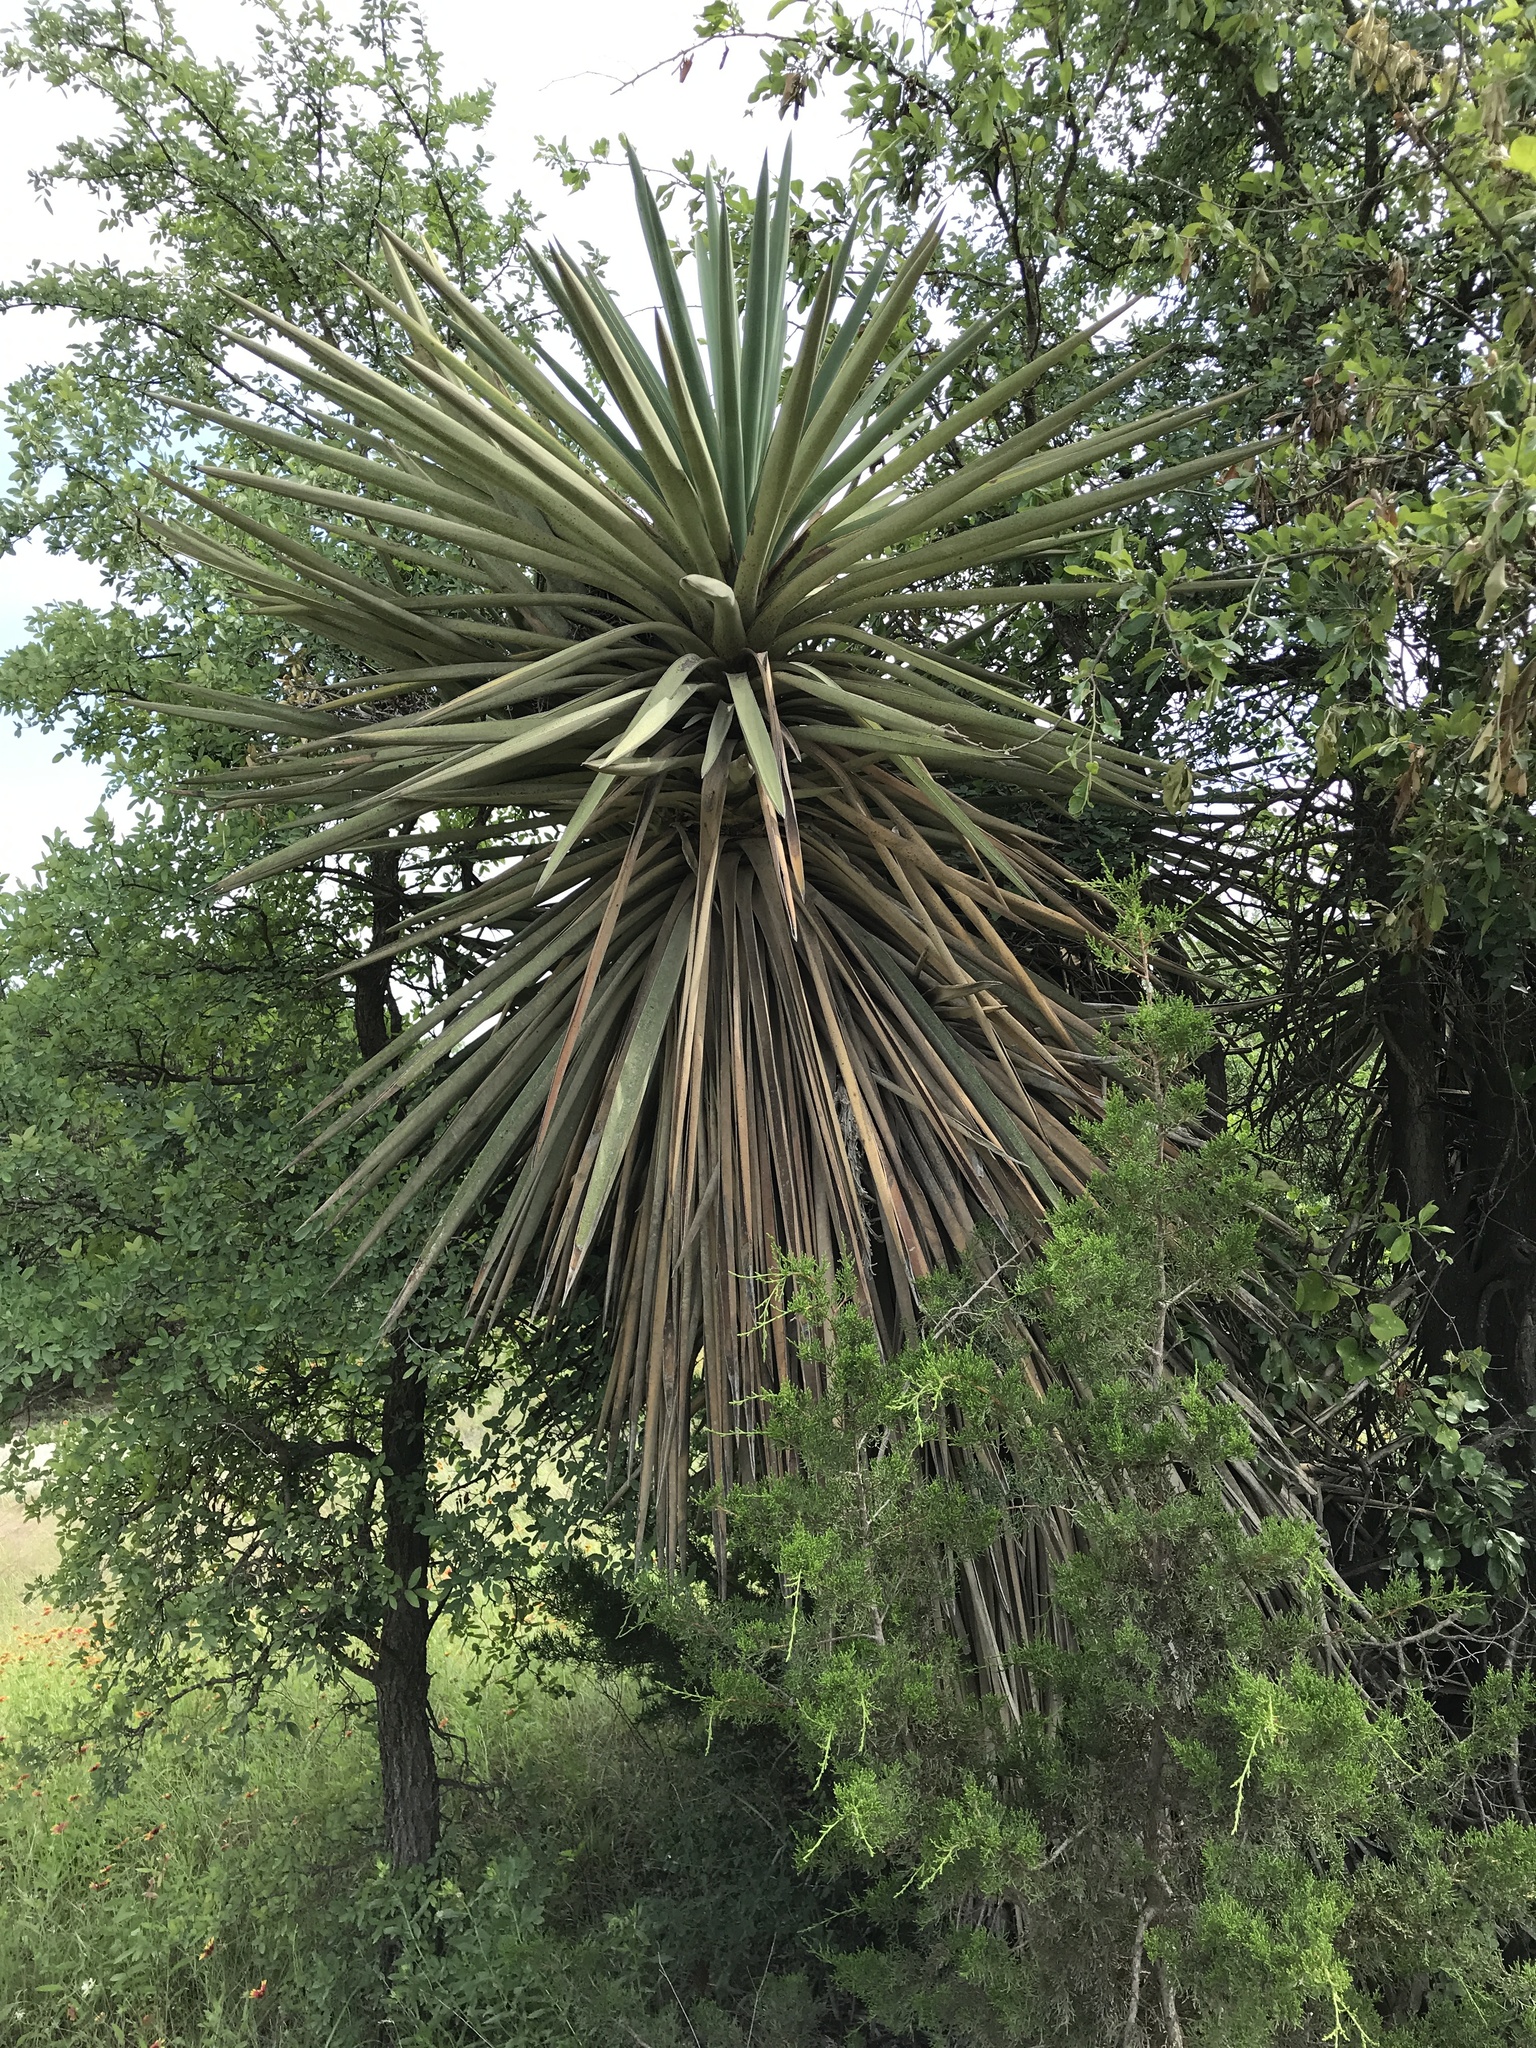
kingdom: Plantae
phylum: Tracheophyta
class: Liliopsida
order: Asparagales
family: Asparagaceae
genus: Yucca
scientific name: Yucca treculiana
